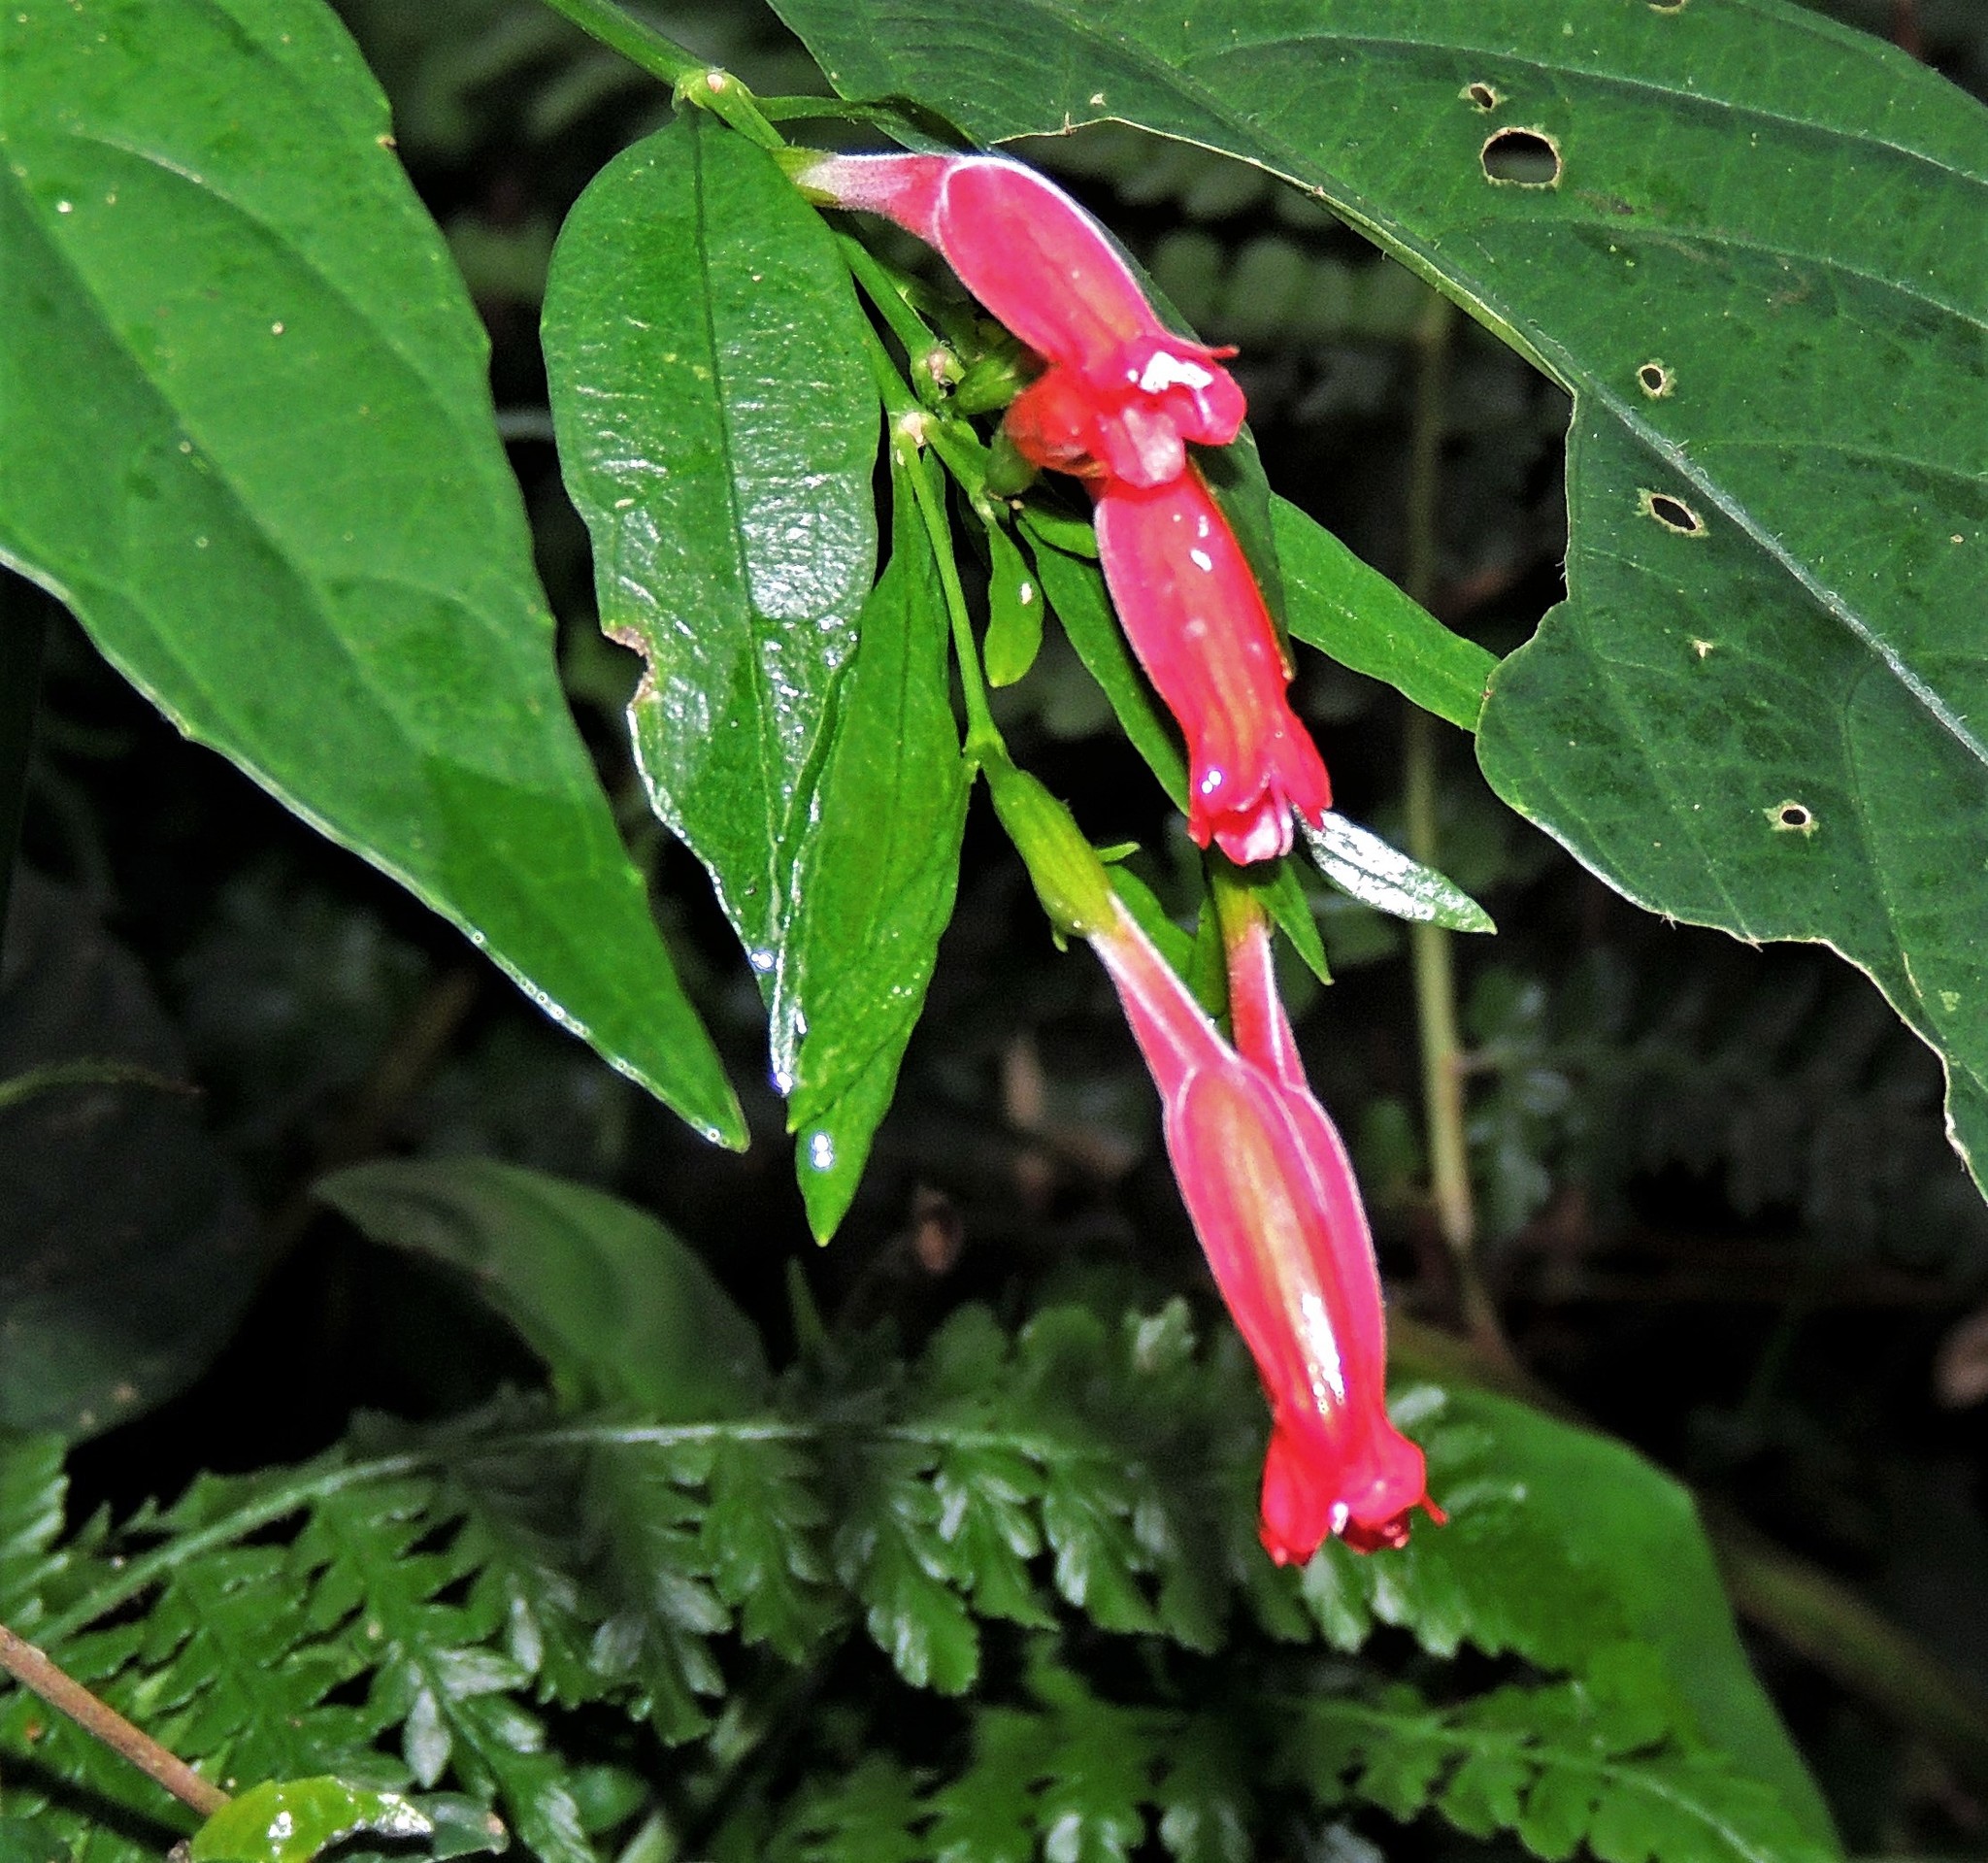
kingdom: Plantae
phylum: Tracheophyta
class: Magnoliopsida
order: Lamiales
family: Acanthaceae
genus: Ruellia
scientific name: Ruellia angustiflora
